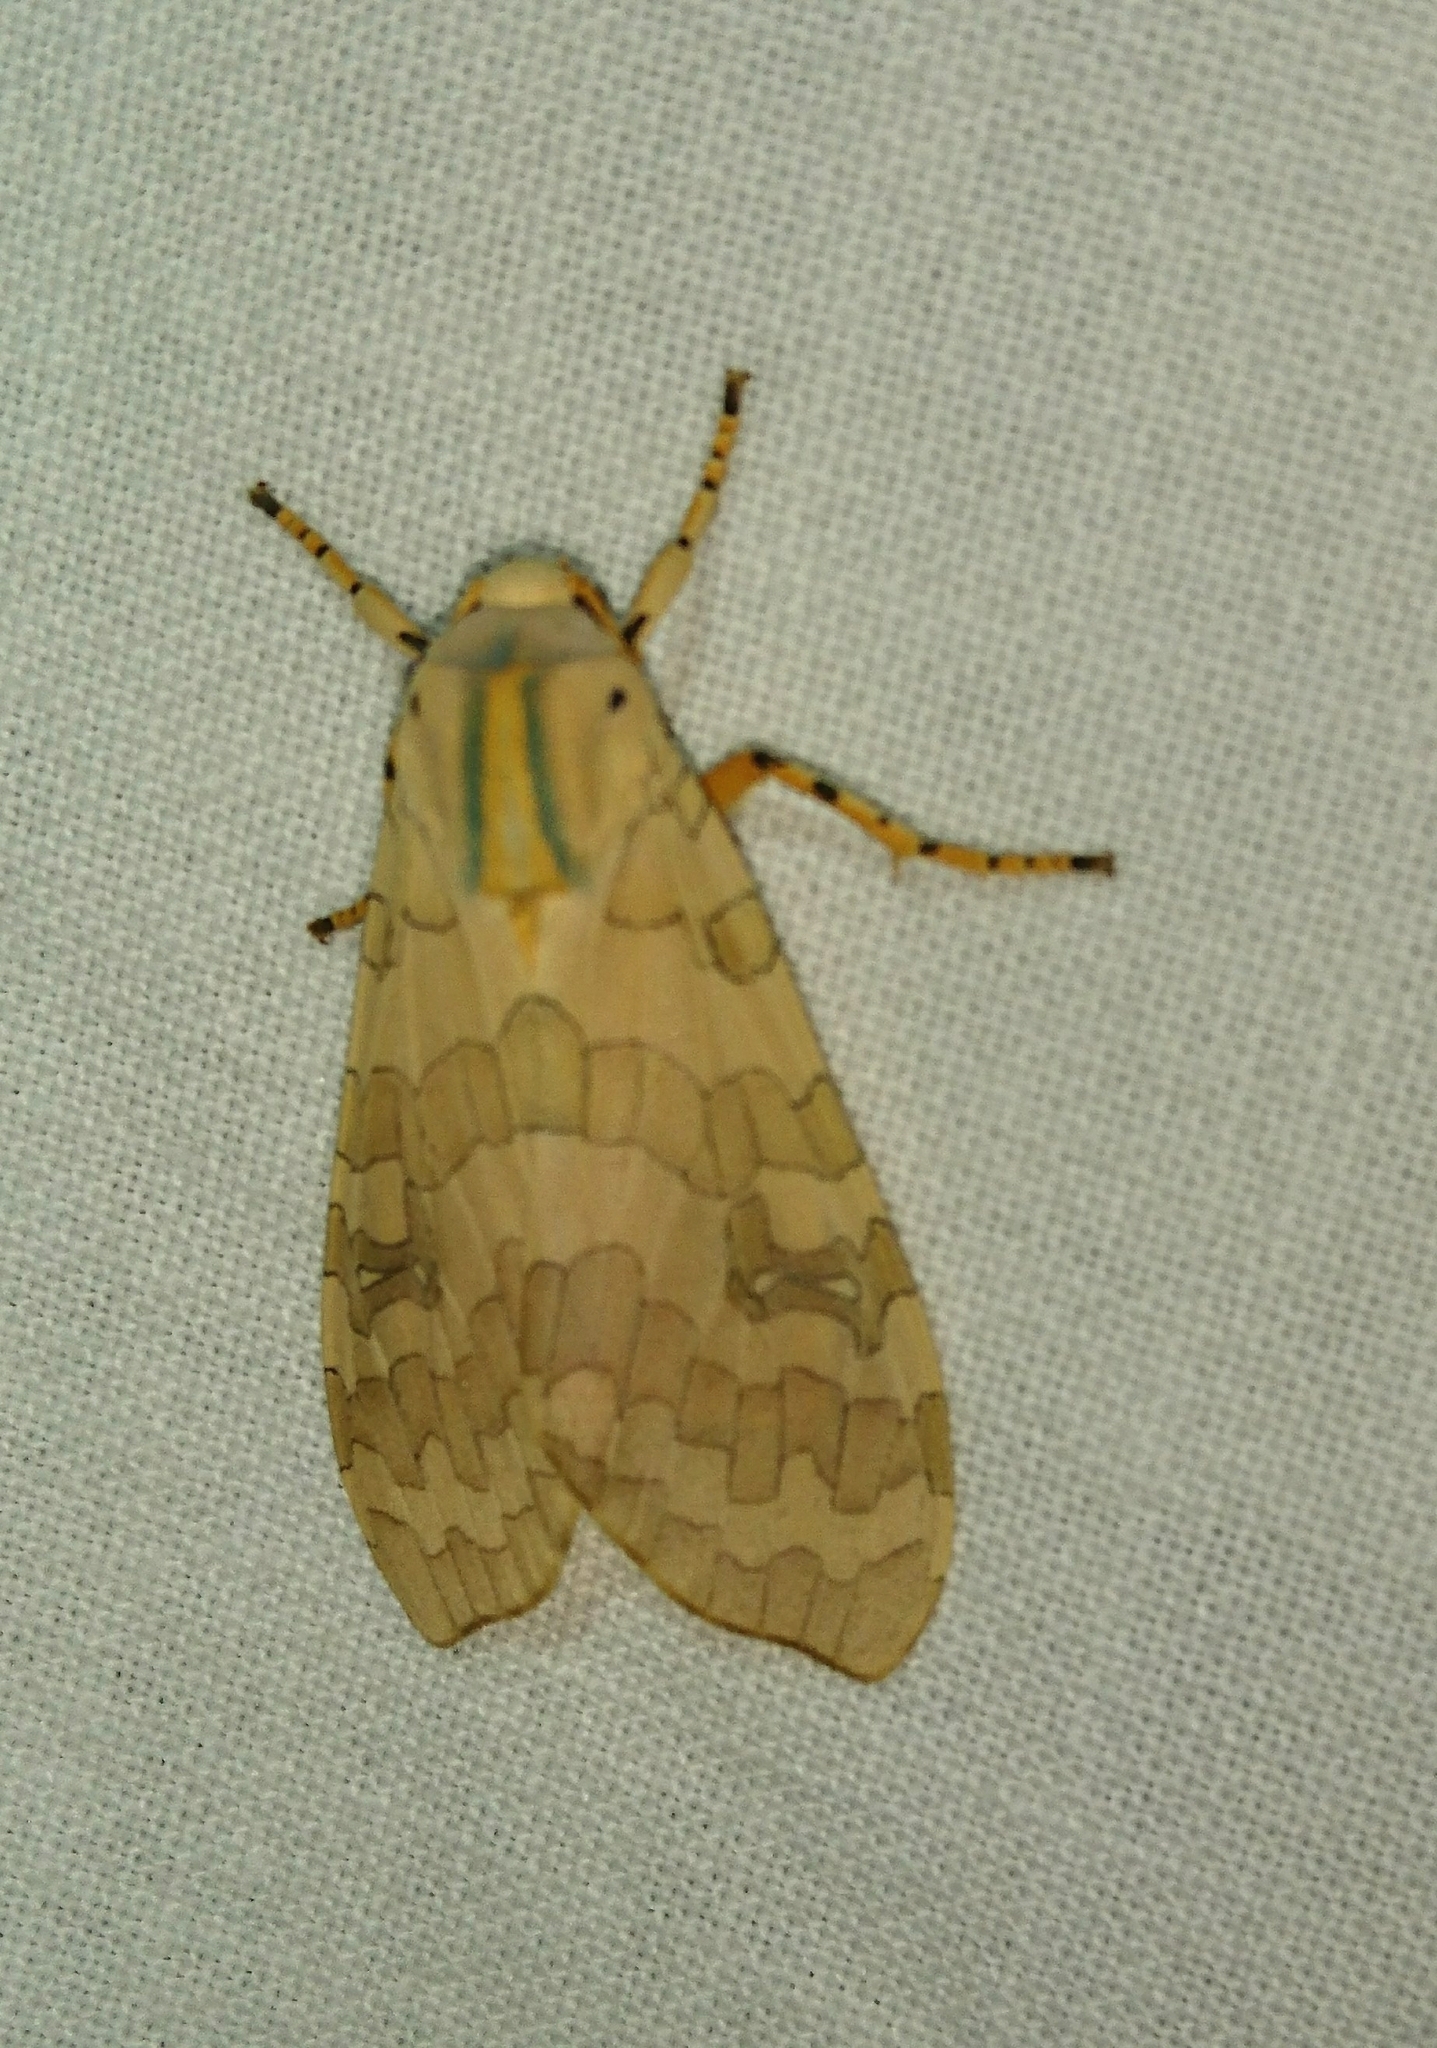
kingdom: Animalia
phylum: Arthropoda
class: Insecta
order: Lepidoptera
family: Erebidae
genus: Halysidota
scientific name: Halysidota
